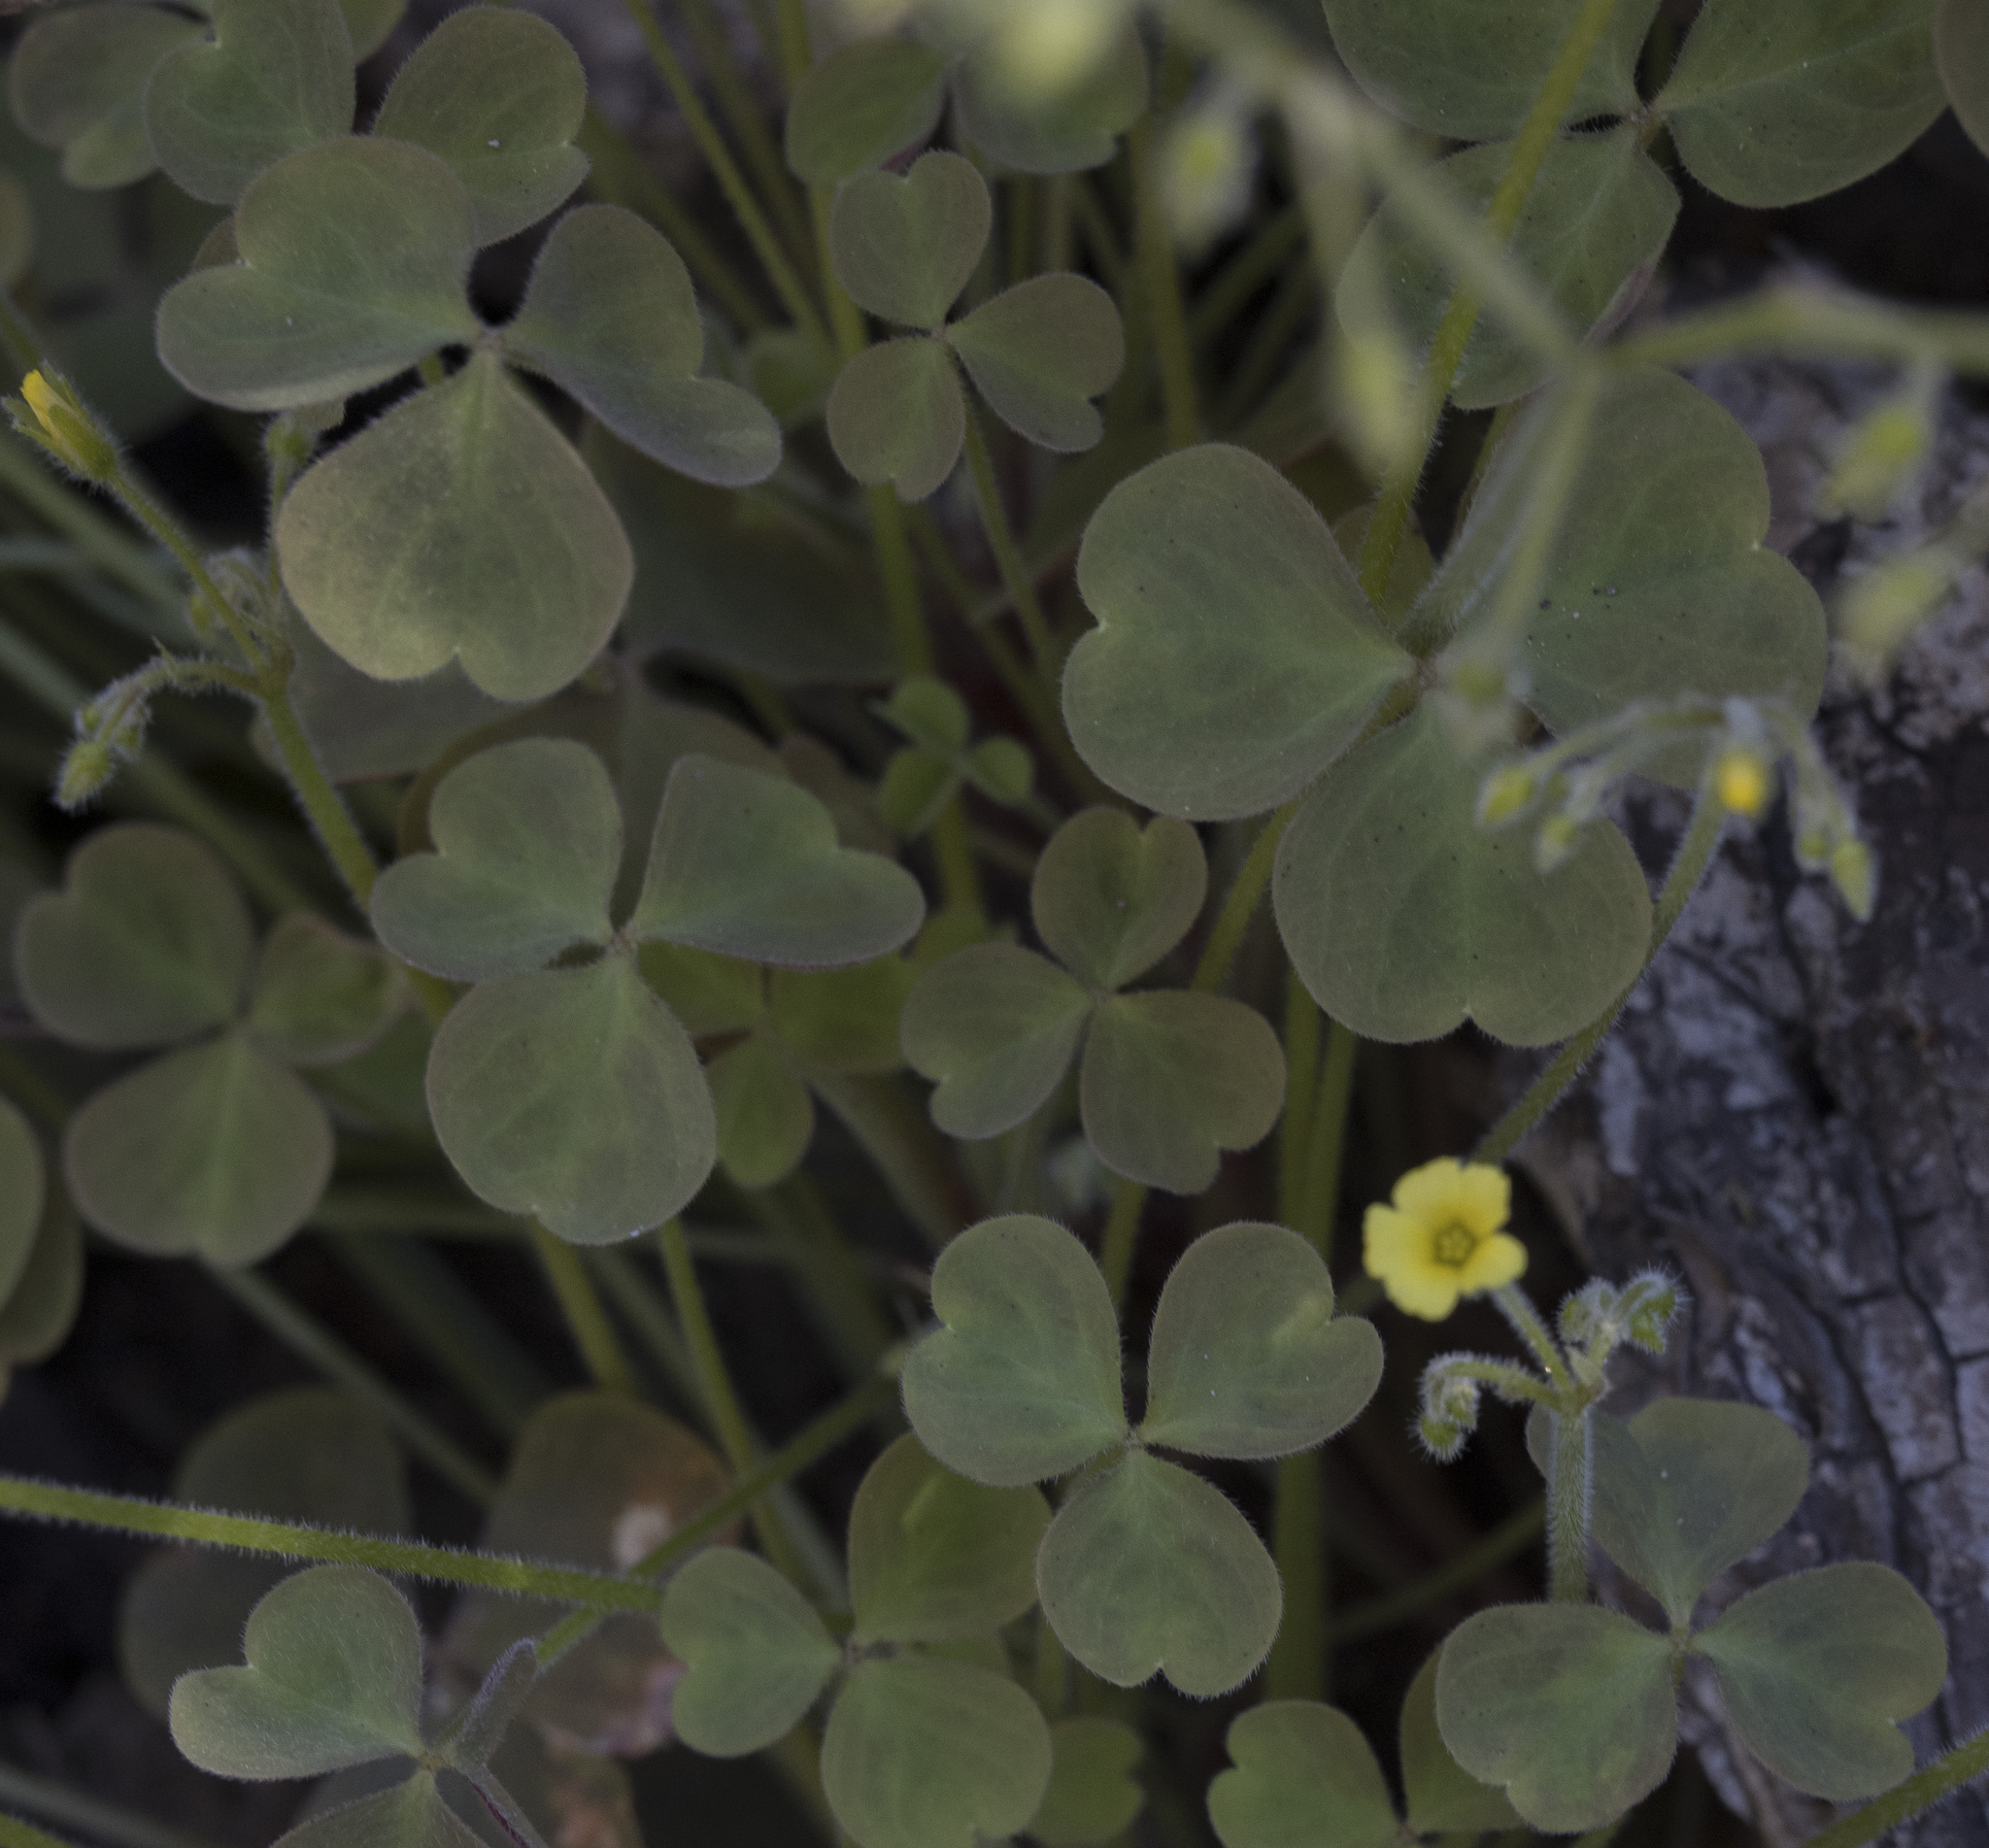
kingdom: Plantae
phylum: Tracheophyta
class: Magnoliopsida
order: Oxalidales
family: Oxalidaceae
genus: Oxalis
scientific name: Oxalis micrantha
